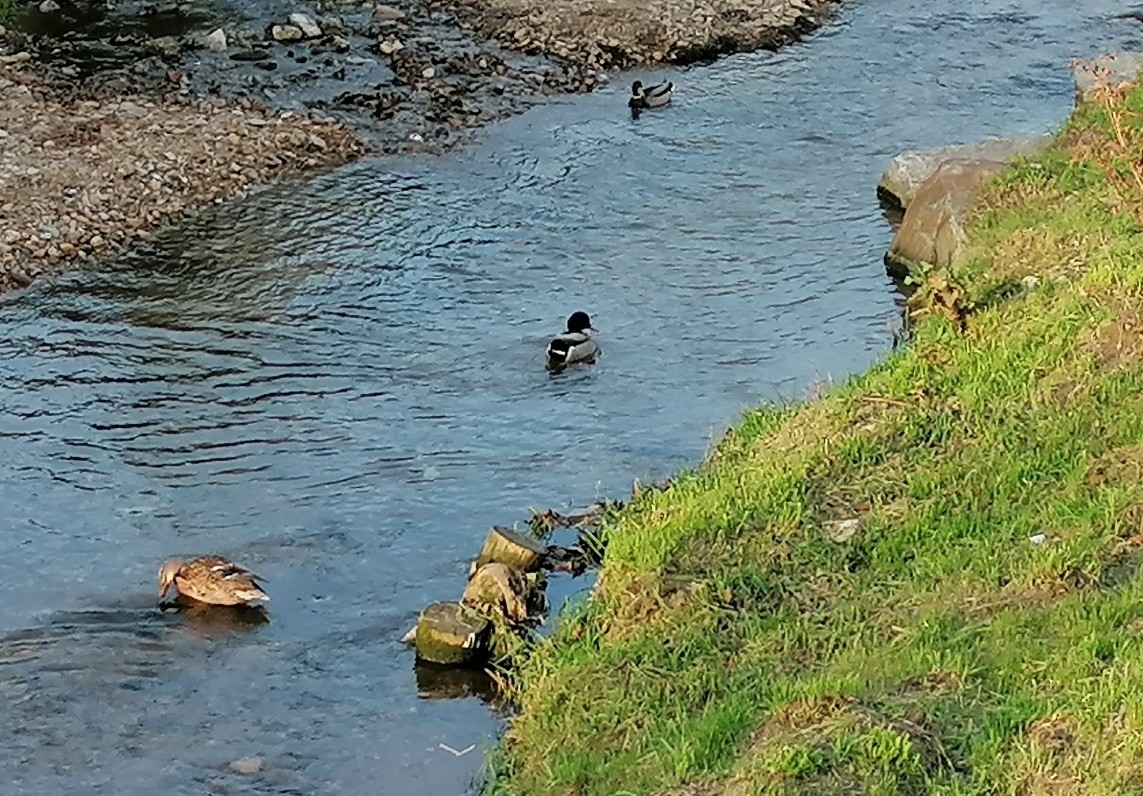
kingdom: Animalia
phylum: Chordata
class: Aves
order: Anseriformes
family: Anatidae
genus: Anas
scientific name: Anas platyrhynchos
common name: Mallard
